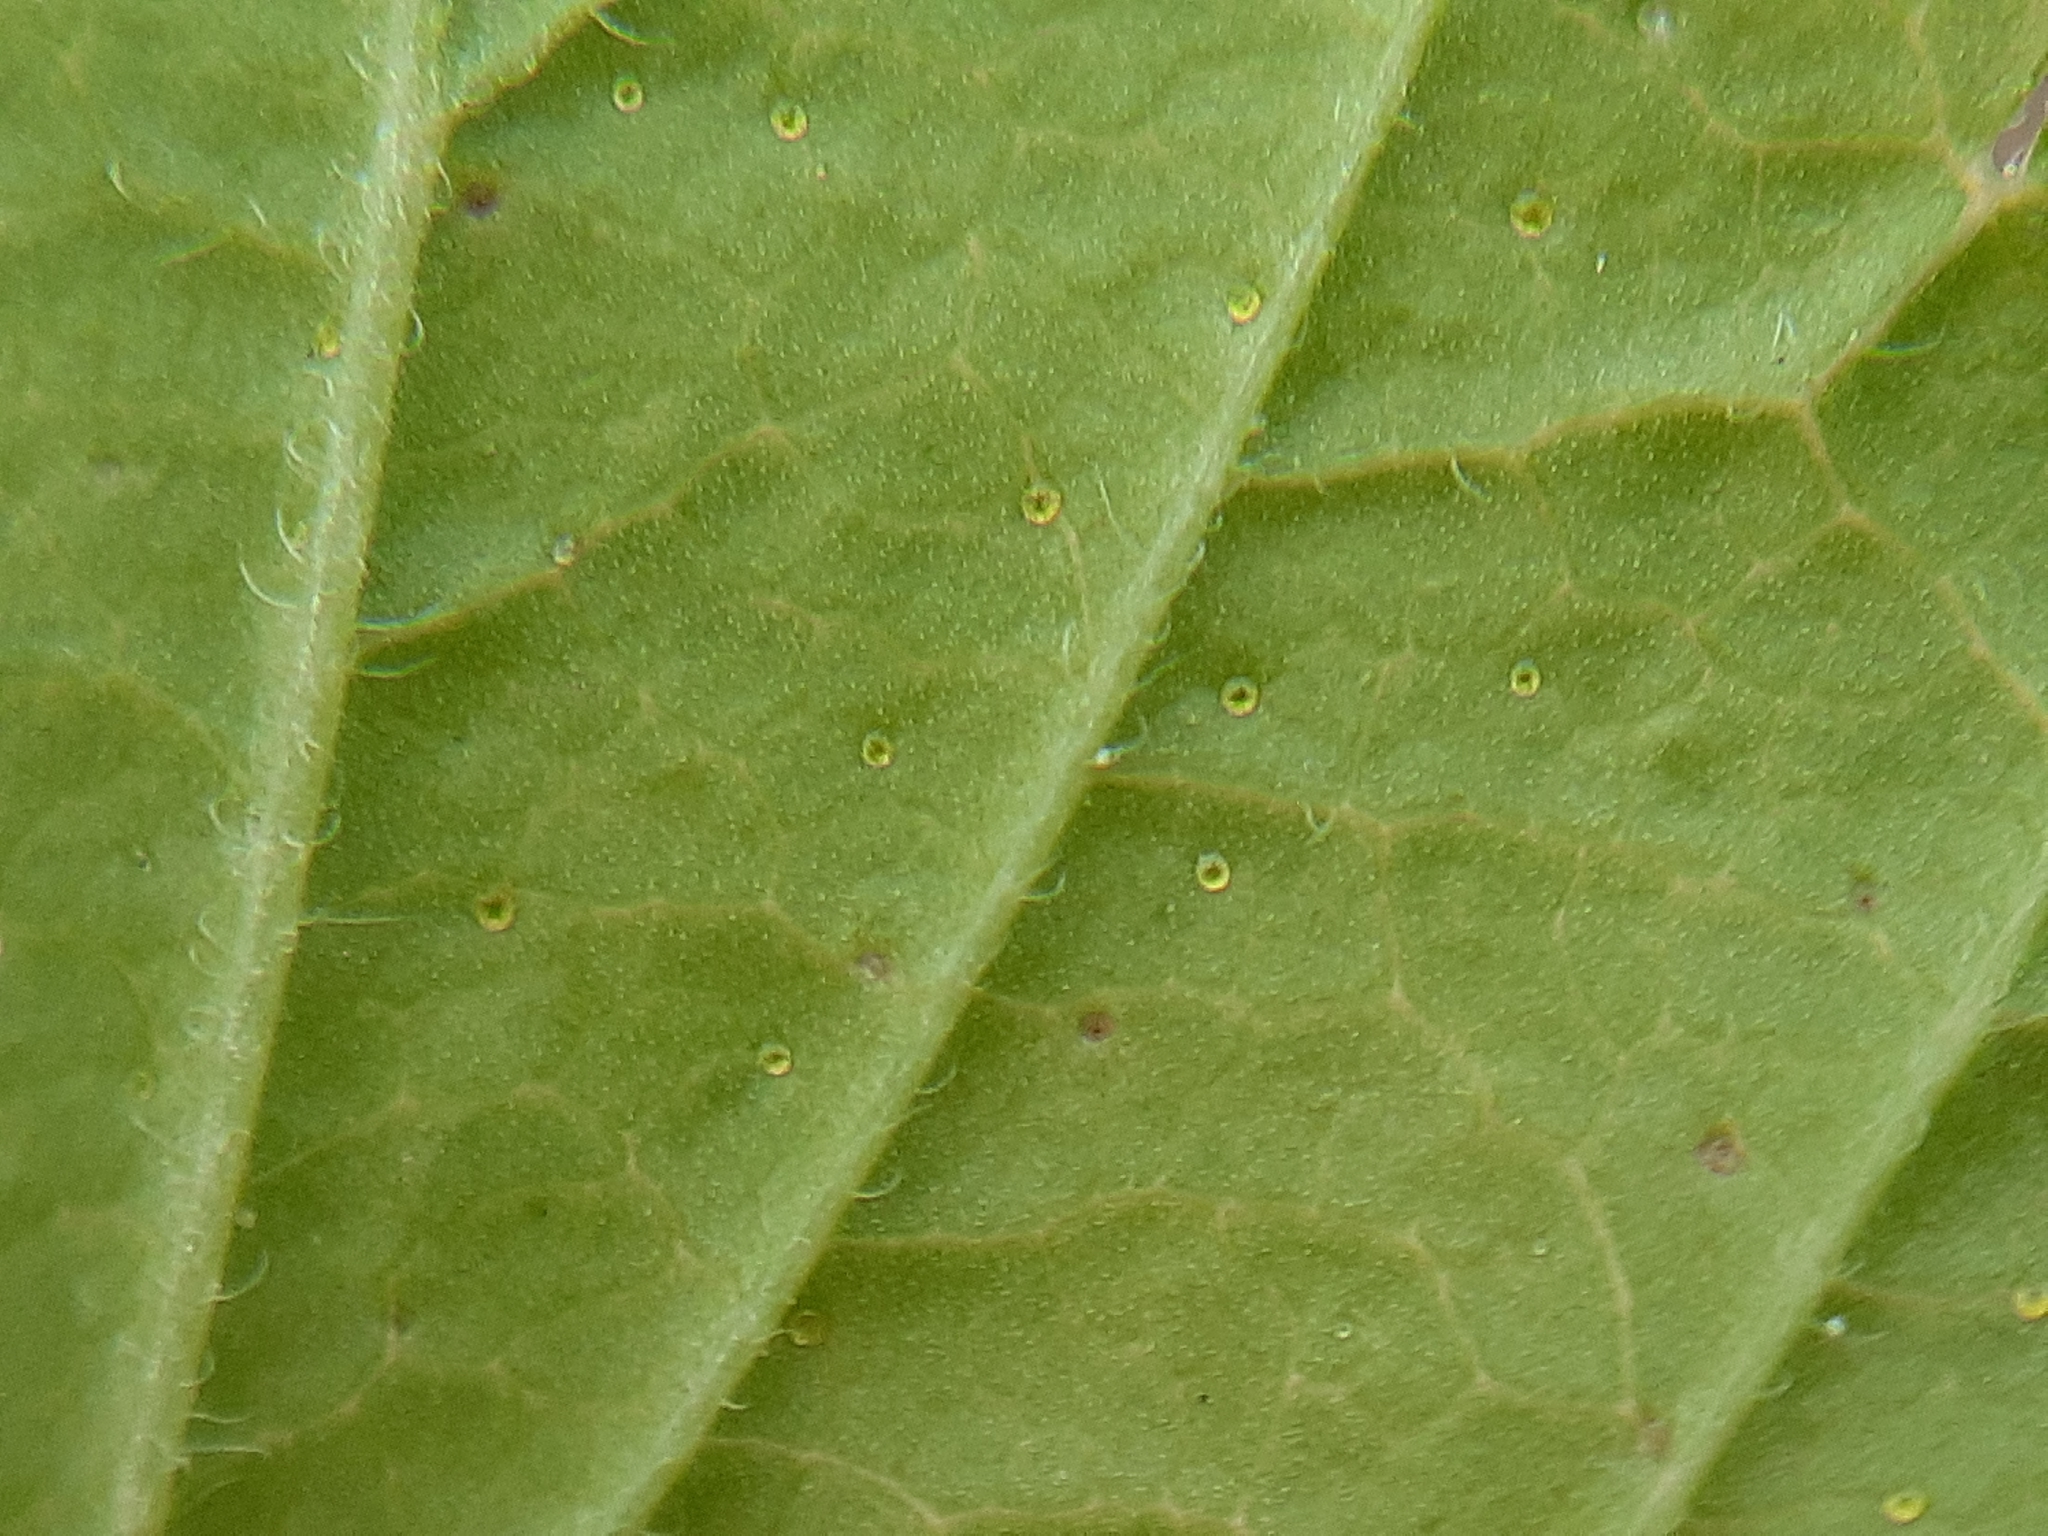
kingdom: Plantae
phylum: Tracheophyta
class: Magnoliopsida
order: Saxifragales
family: Grossulariaceae
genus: Ribes
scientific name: Ribes americanum
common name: American black currant
